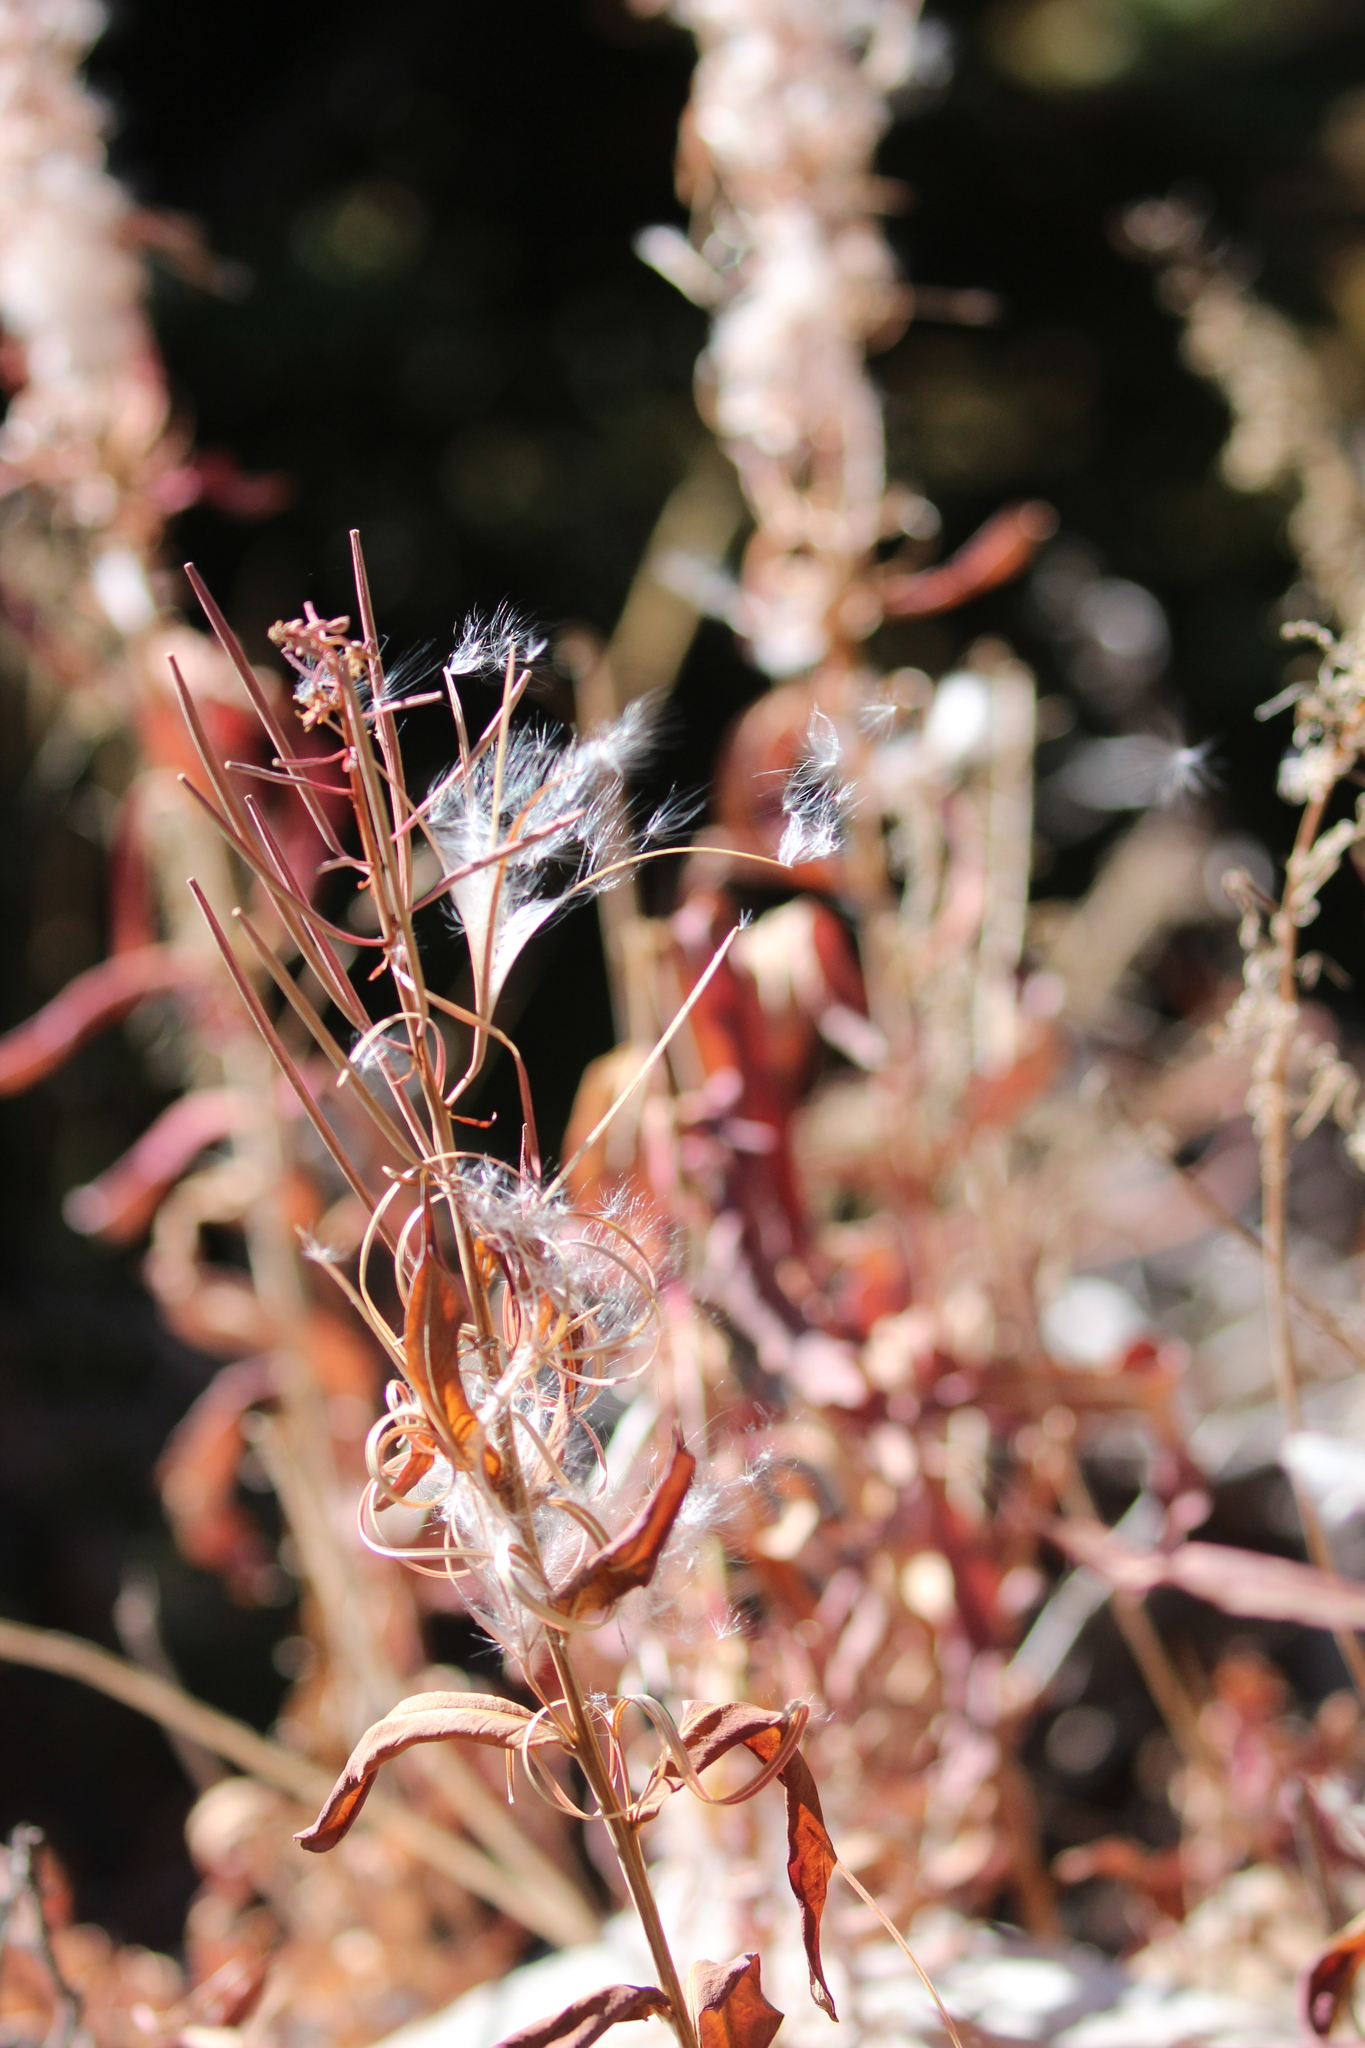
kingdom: Plantae
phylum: Tracheophyta
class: Magnoliopsida
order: Myrtales
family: Onagraceae
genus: Chamaenerion
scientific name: Chamaenerion angustifolium
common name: Fireweed
